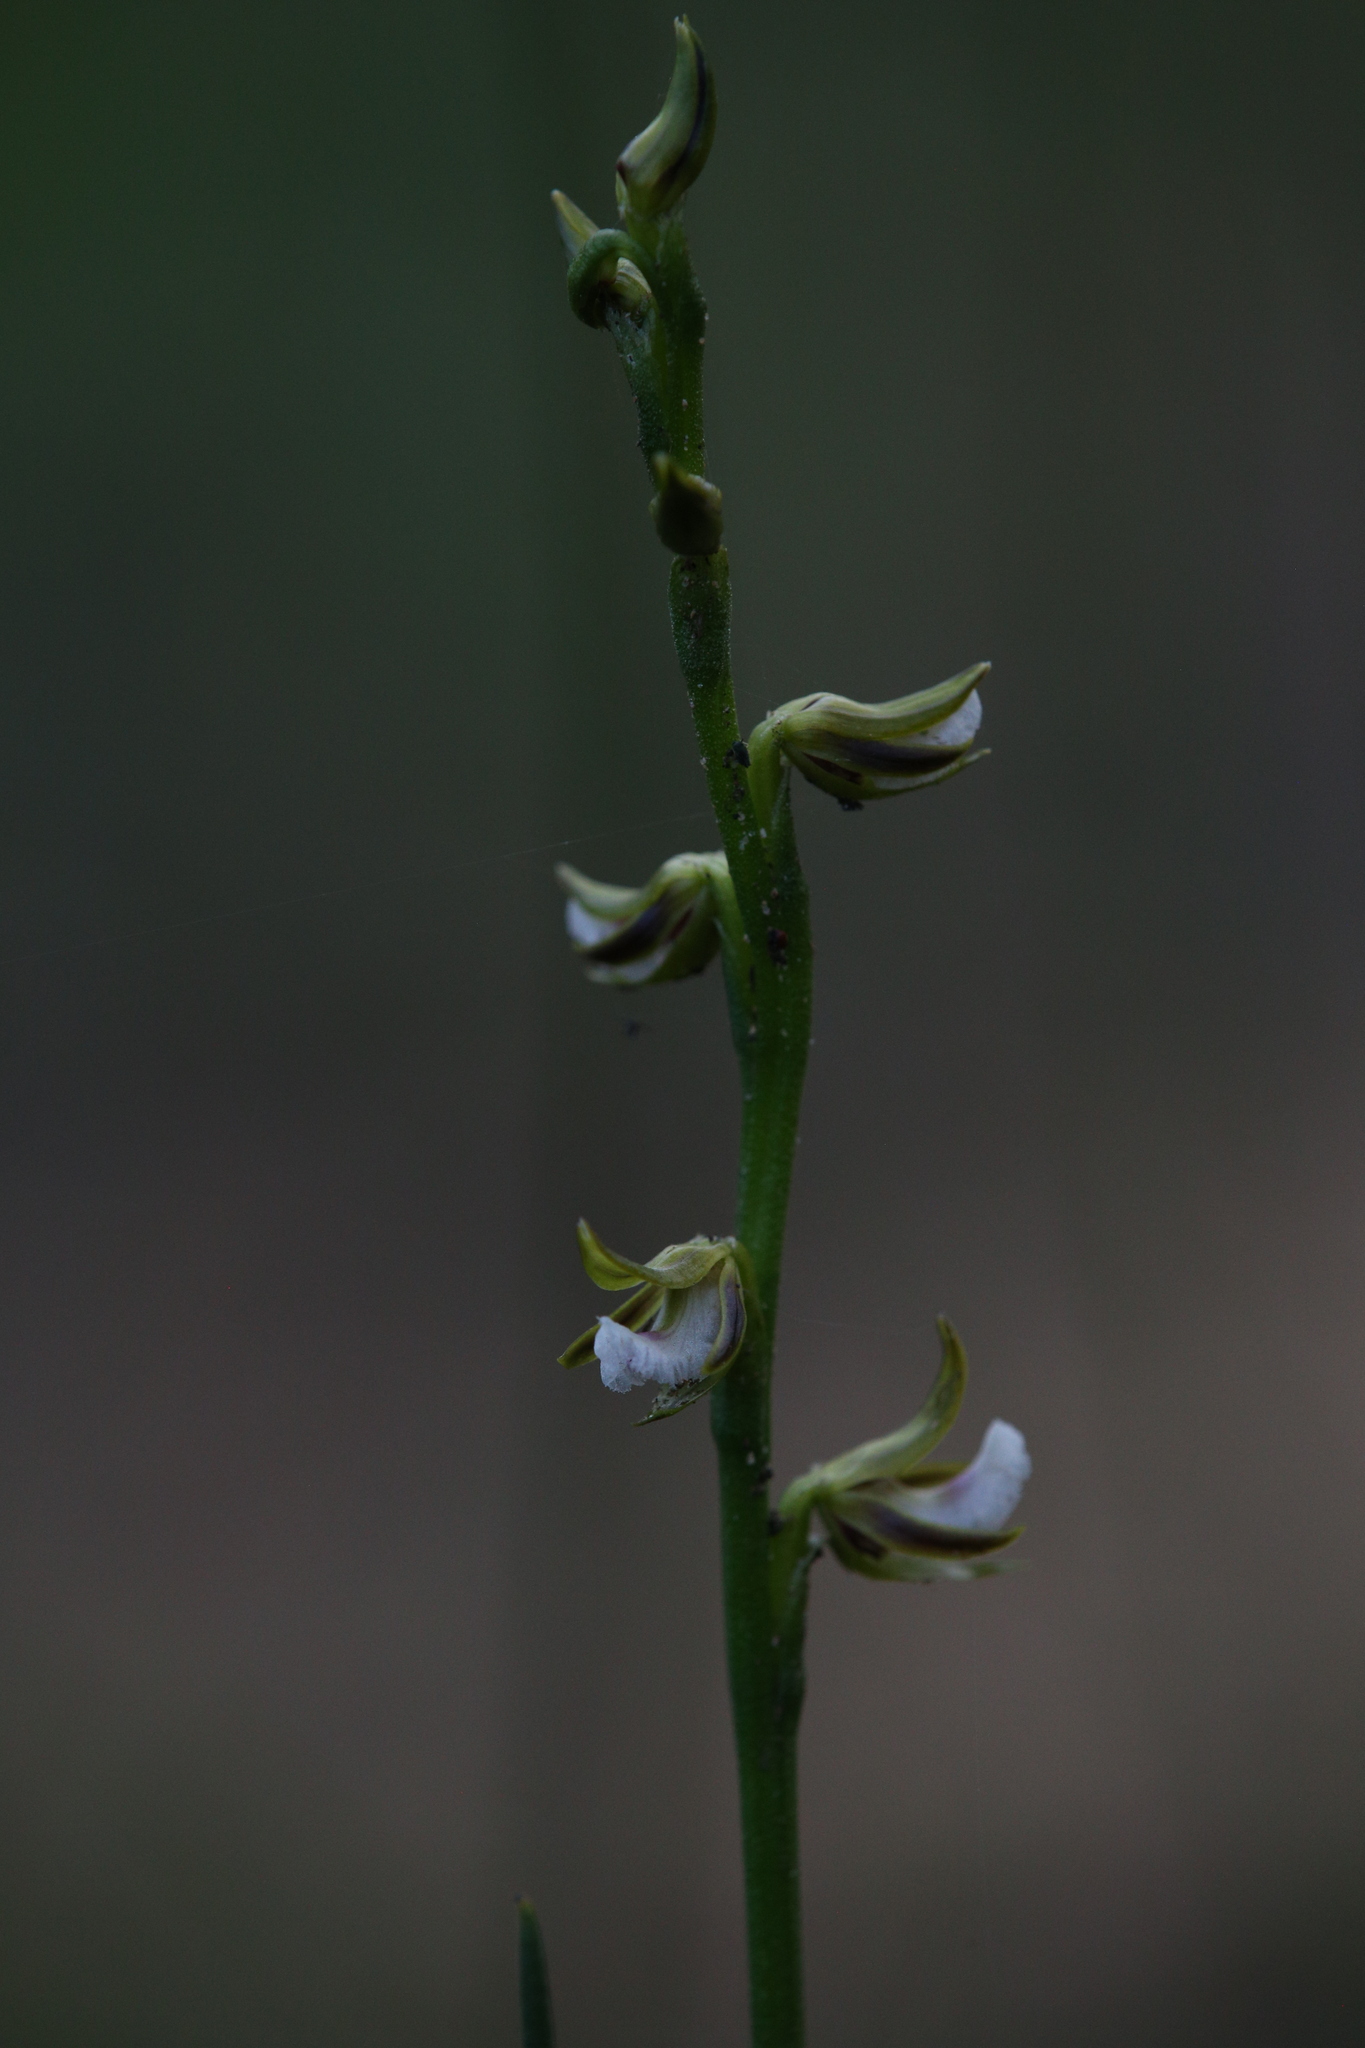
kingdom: Plantae
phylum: Tracheophyta
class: Liliopsida
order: Asparagales
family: Orchidaceae
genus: Prasophyllum
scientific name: Prasophyllum fimbria
